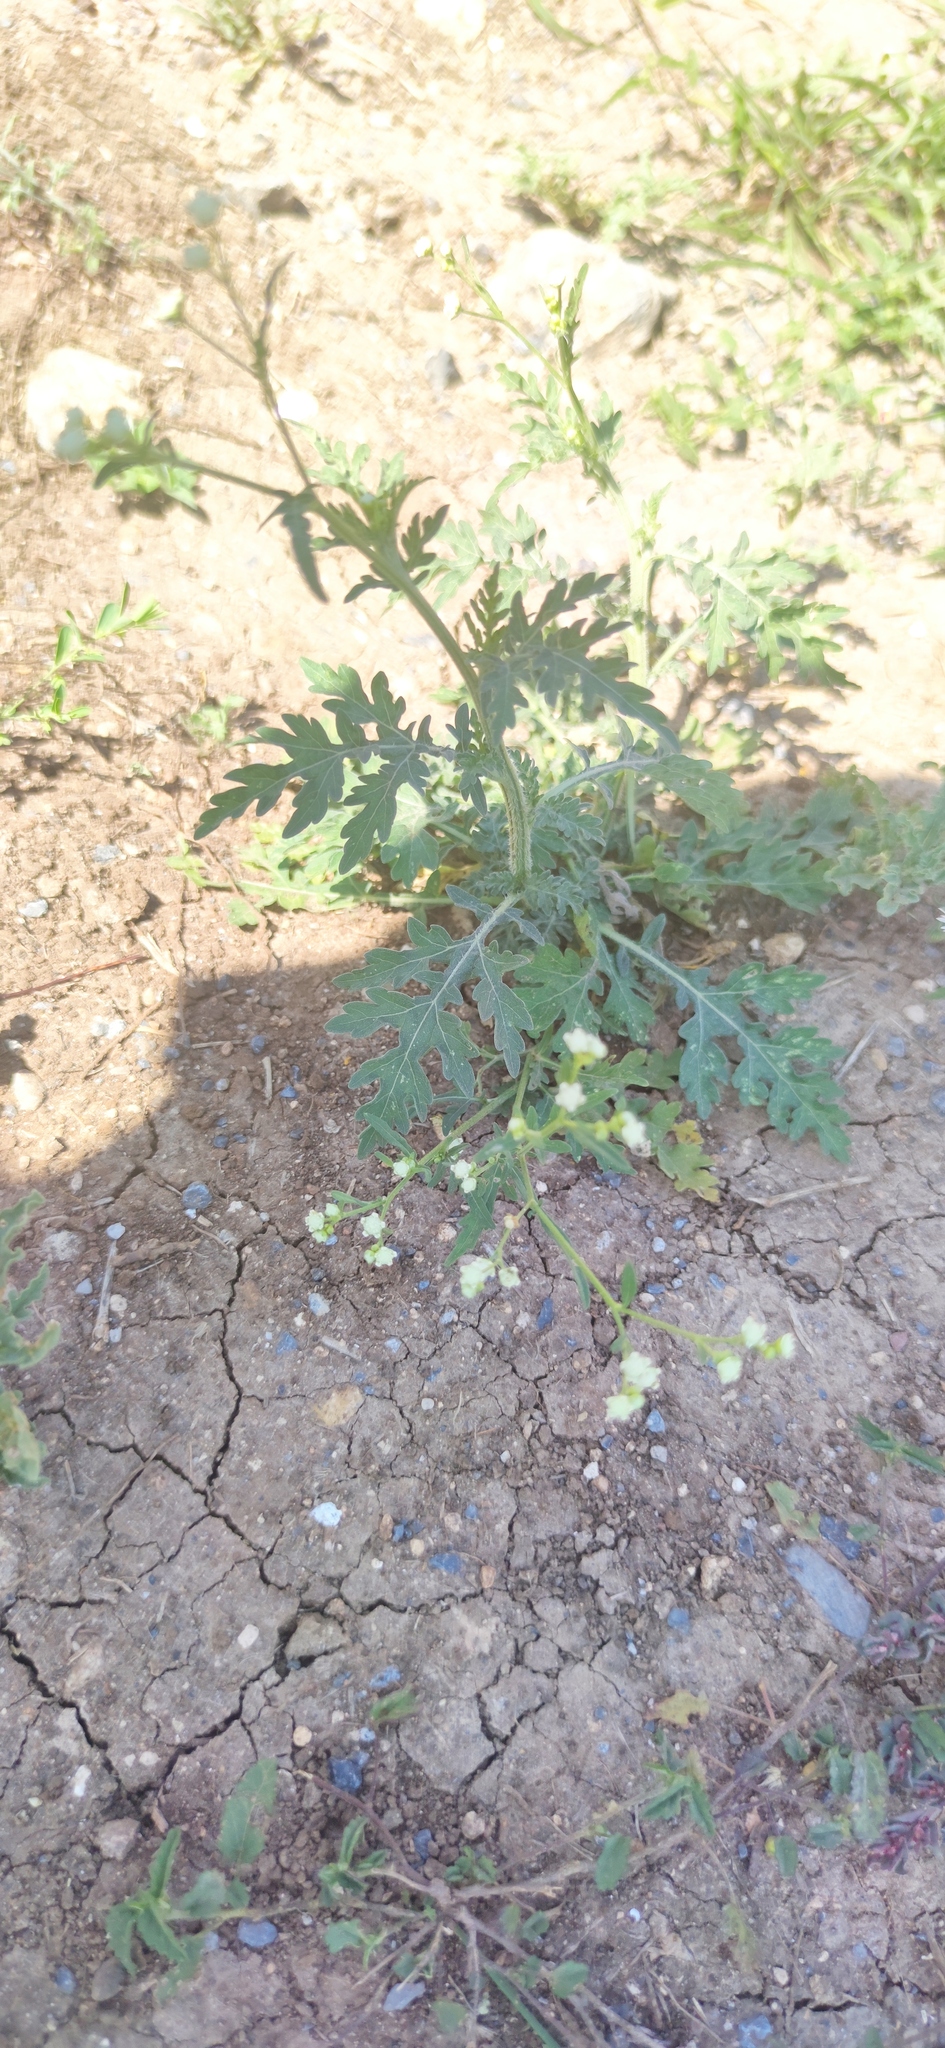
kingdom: Plantae
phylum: Tracheophyta
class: Magnoliopsida
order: Asterales
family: Asteraceae
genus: Parthenium
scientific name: Parthenium hysterophorus
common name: Santa maria feverfew
